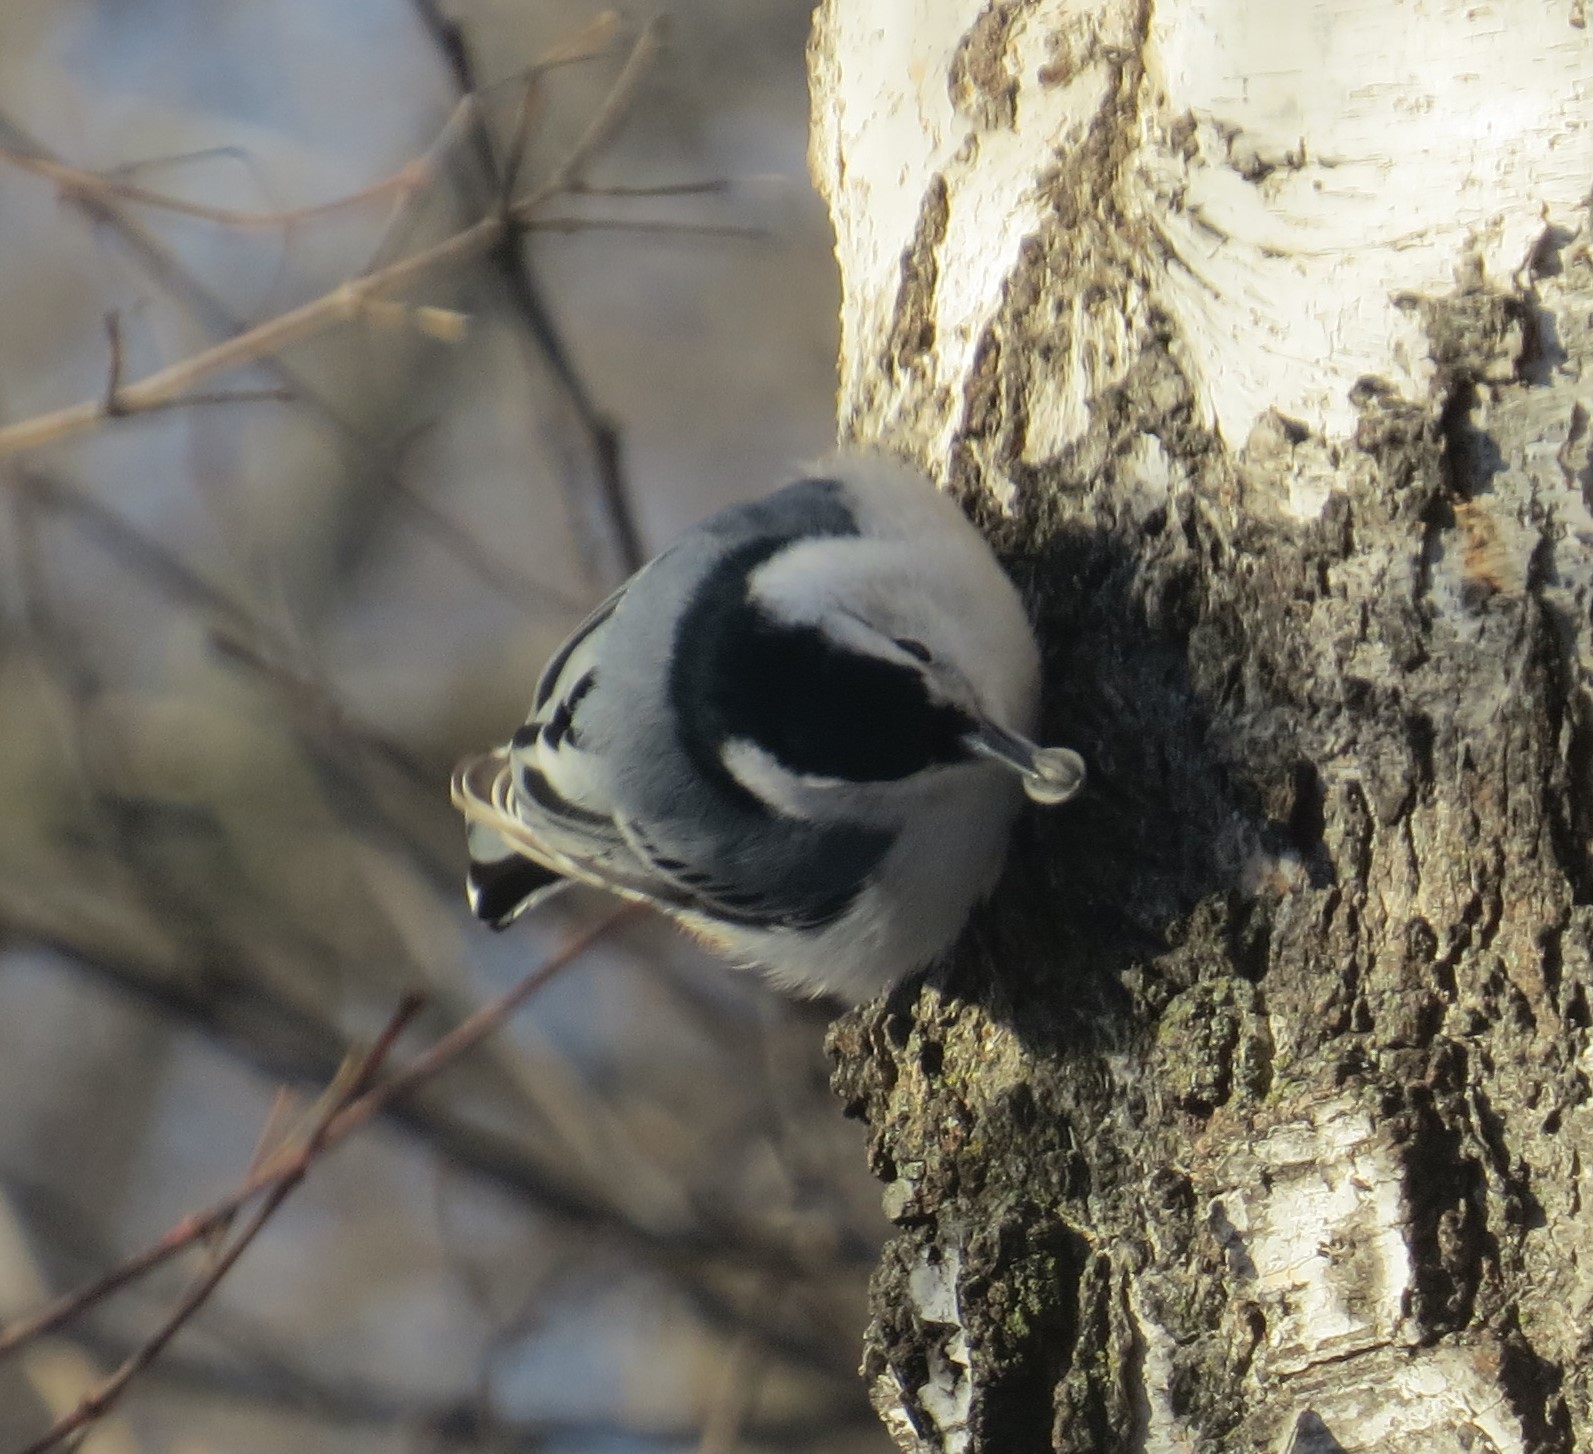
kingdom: Animalia
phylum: Chordata
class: Aves
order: Passeriformes
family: Sittidae
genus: Sitta
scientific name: Sitta carolinensis
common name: White-breasted nuthatch
